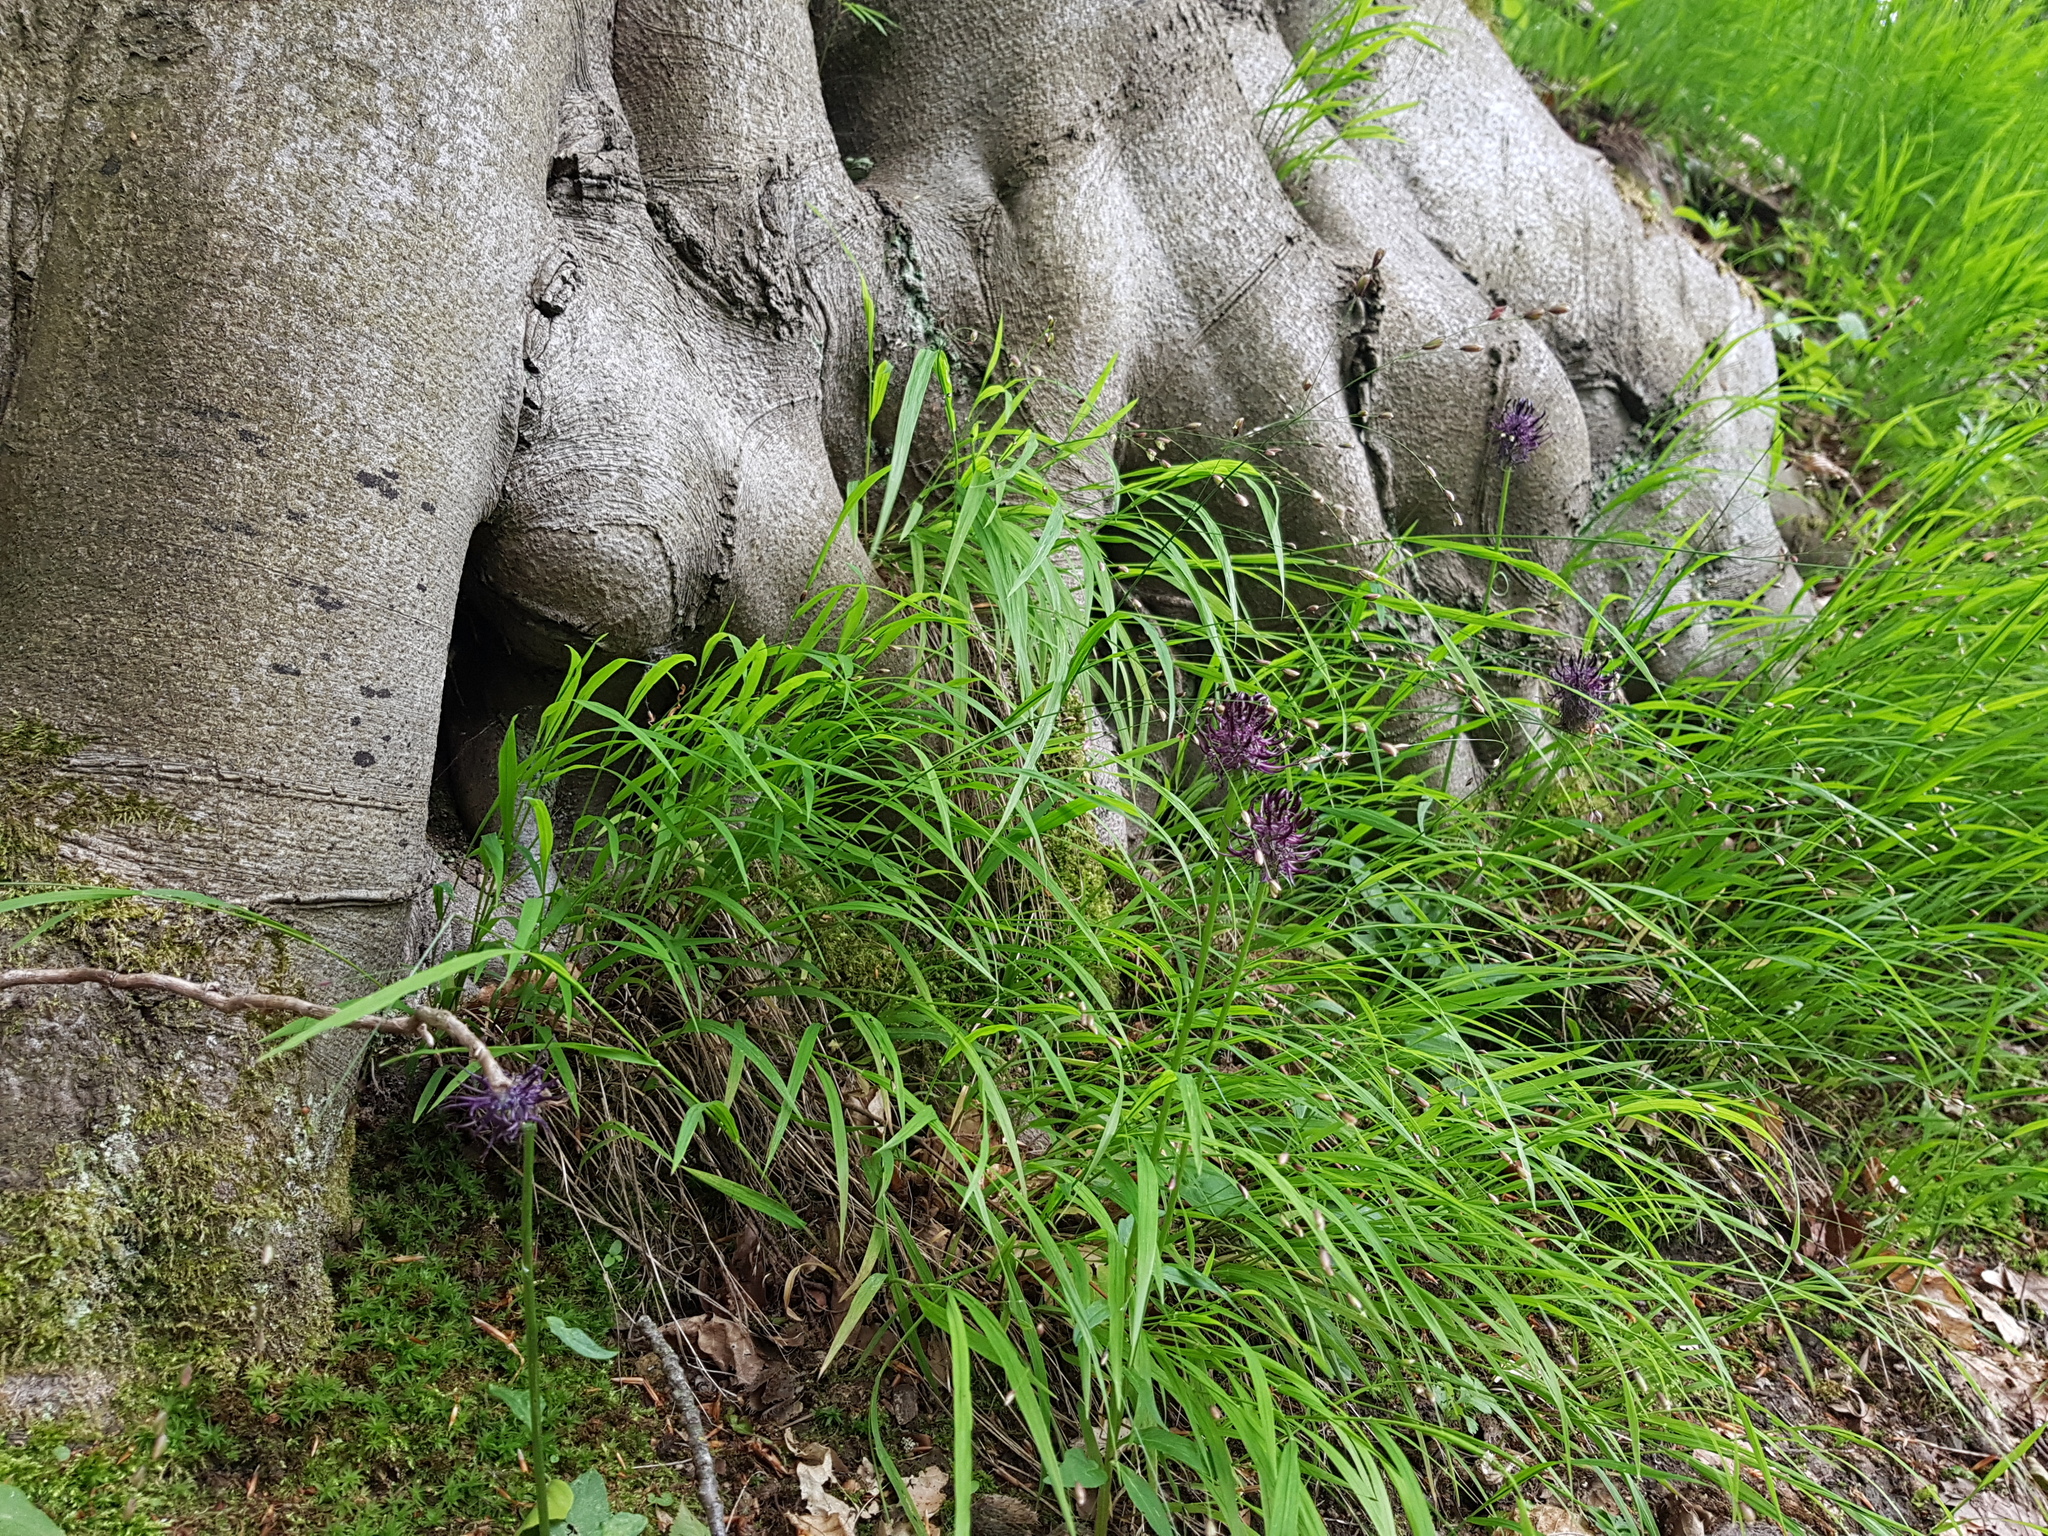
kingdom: Plantae
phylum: Tracheophyta
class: Magnoliopsida
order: Asterales
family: Campanulaceae
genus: Phyteuma
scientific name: Phyteuma nigrum
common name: Black rampion
